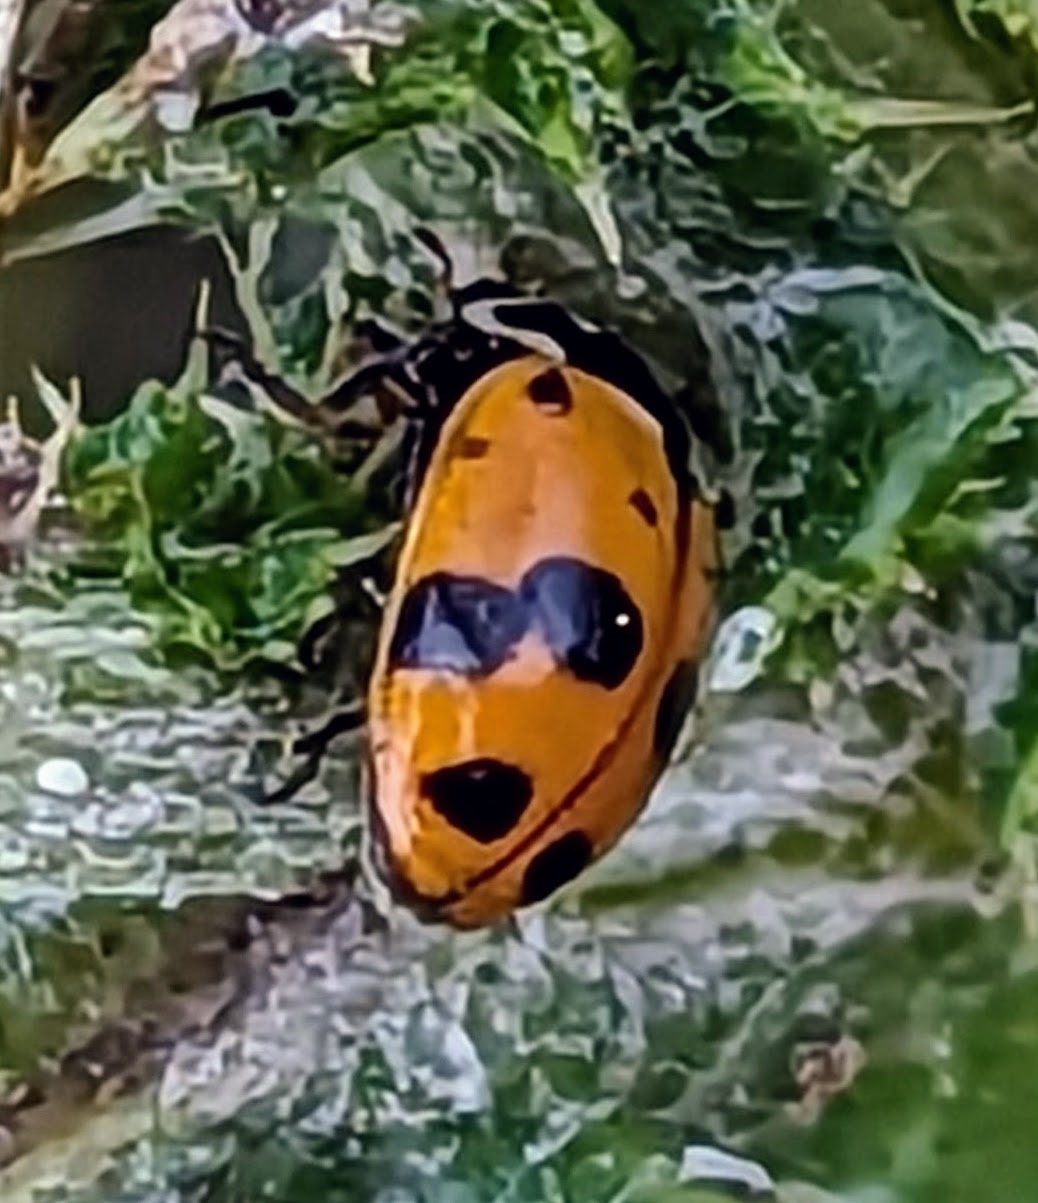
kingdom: Animalia
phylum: Arthropoda
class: Insecta
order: Coleoptera
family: Coccinellidae
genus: Hippodamia
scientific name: Hippodamia variegata
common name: Ladybird beetle
